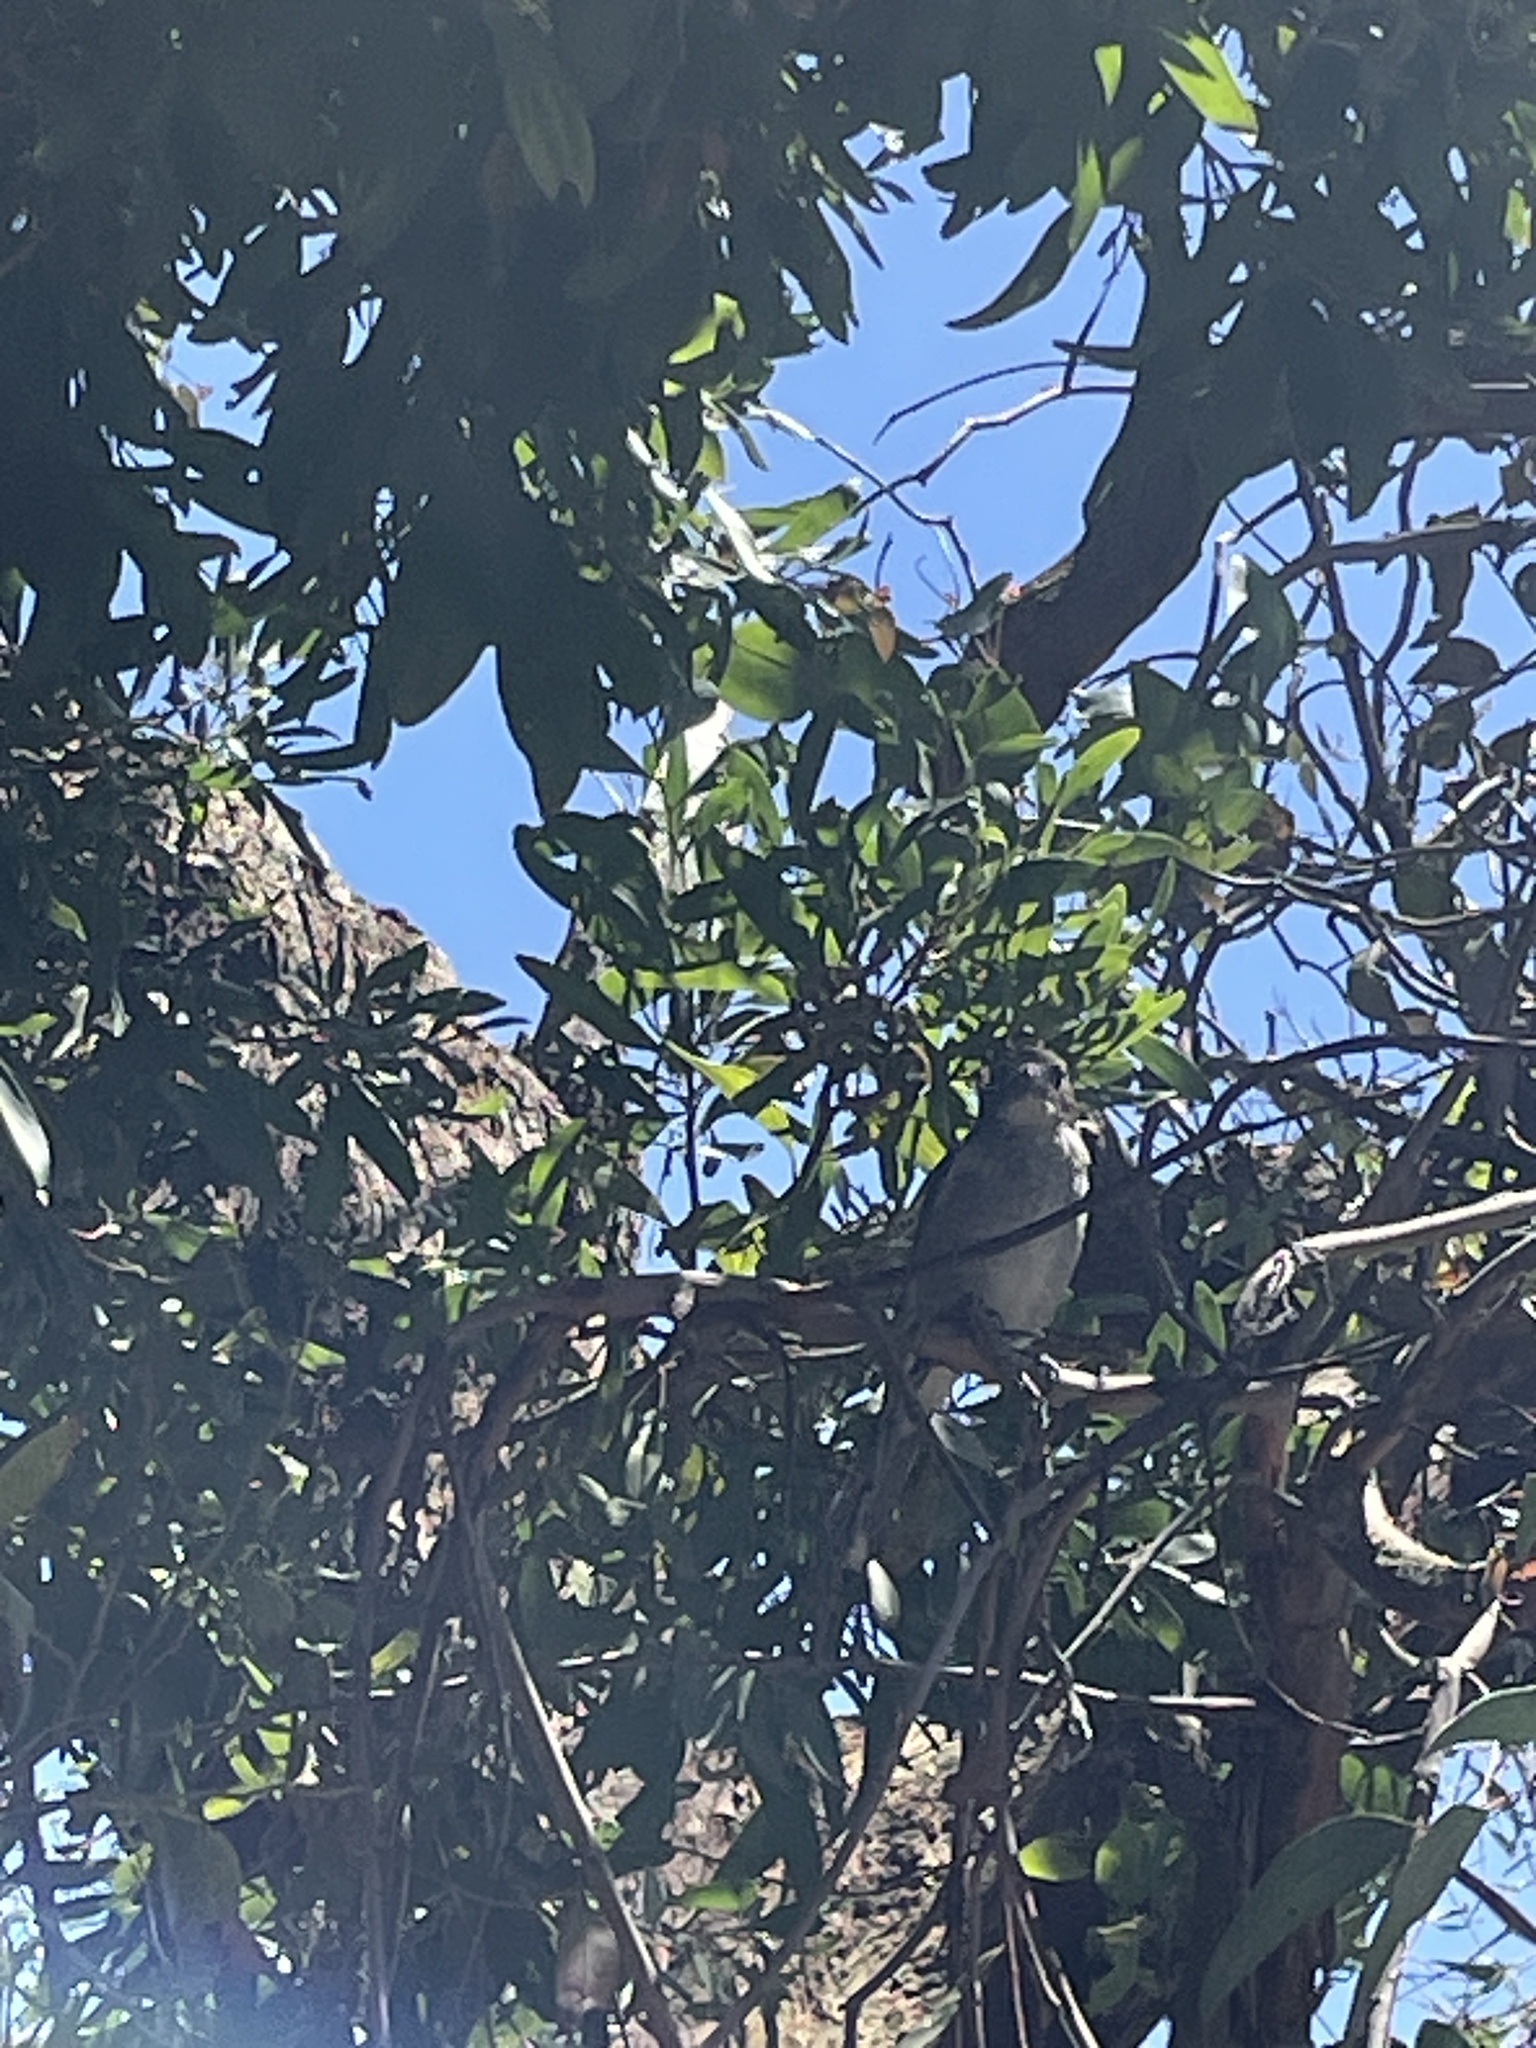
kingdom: Animalia
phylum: Chordata
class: Aves
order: Passeriformes
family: Cracticidae
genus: Cracticus
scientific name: Cracticus torquatus
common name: Grey butcherbird
